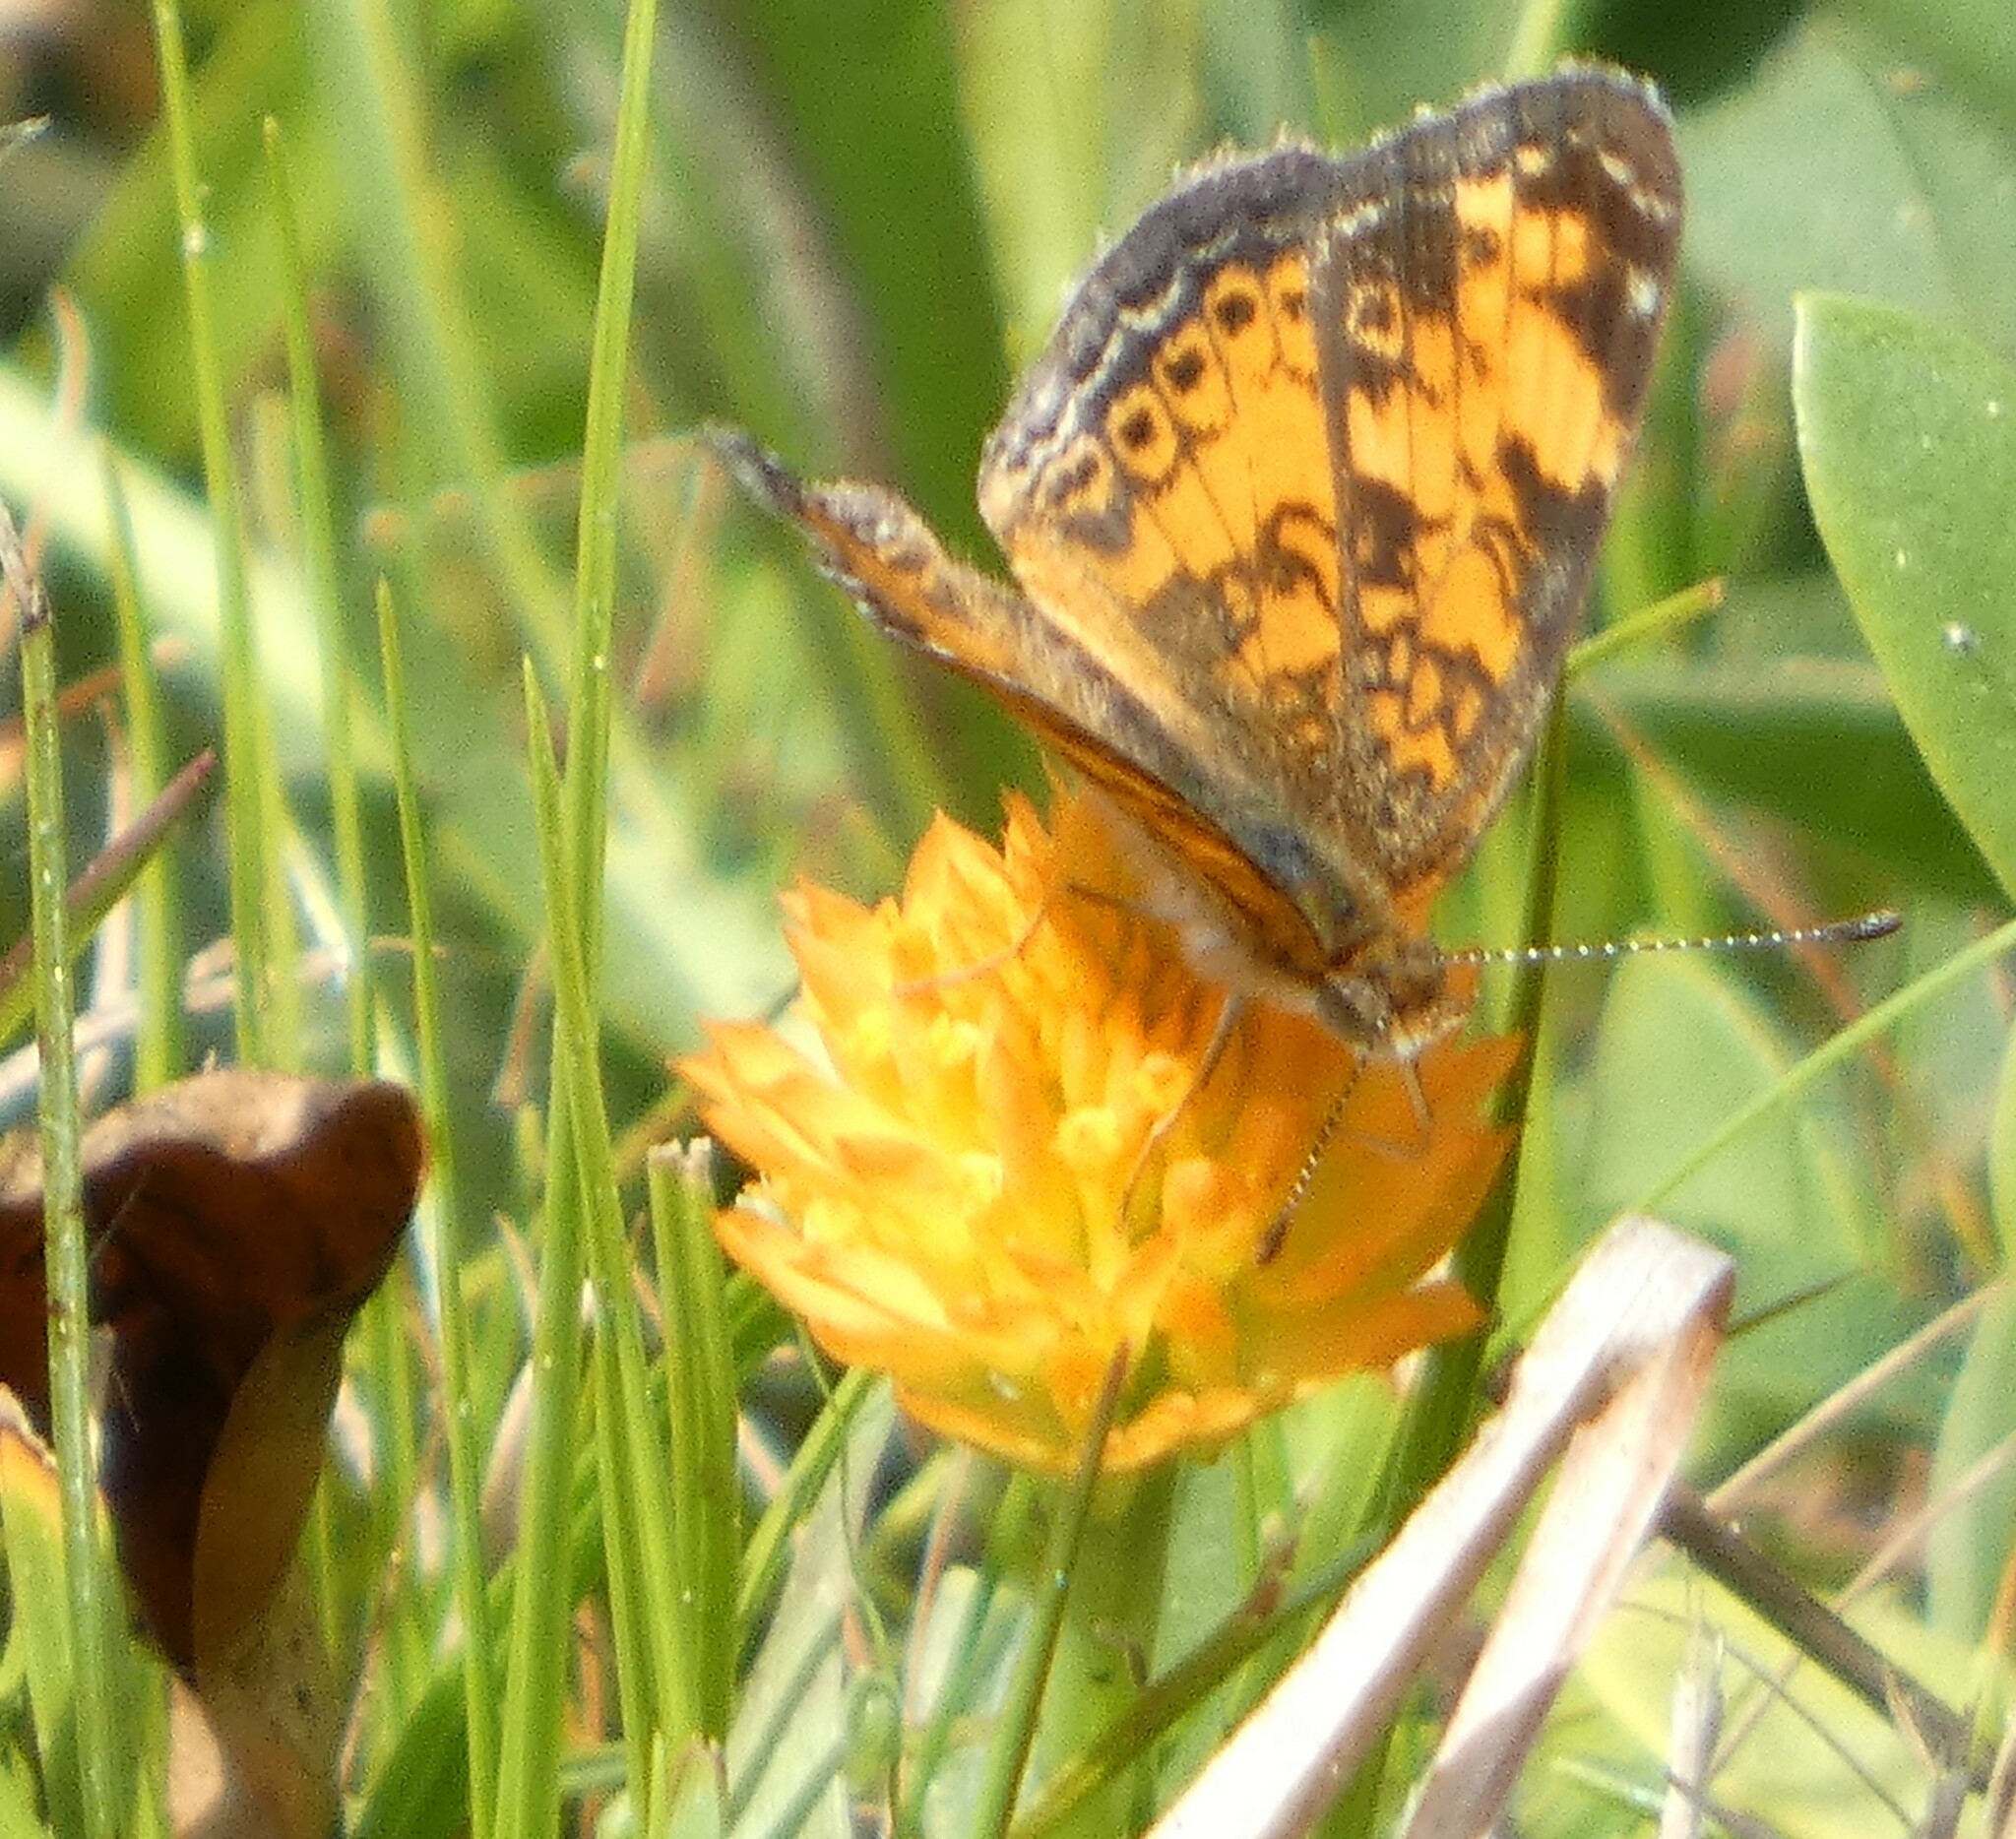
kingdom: Animalia
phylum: Arthropoda
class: Insecta
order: Lepidoptera
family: Nymphalidae
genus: Phyciodes
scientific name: Phyciodes tharos
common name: Pearl crescent
